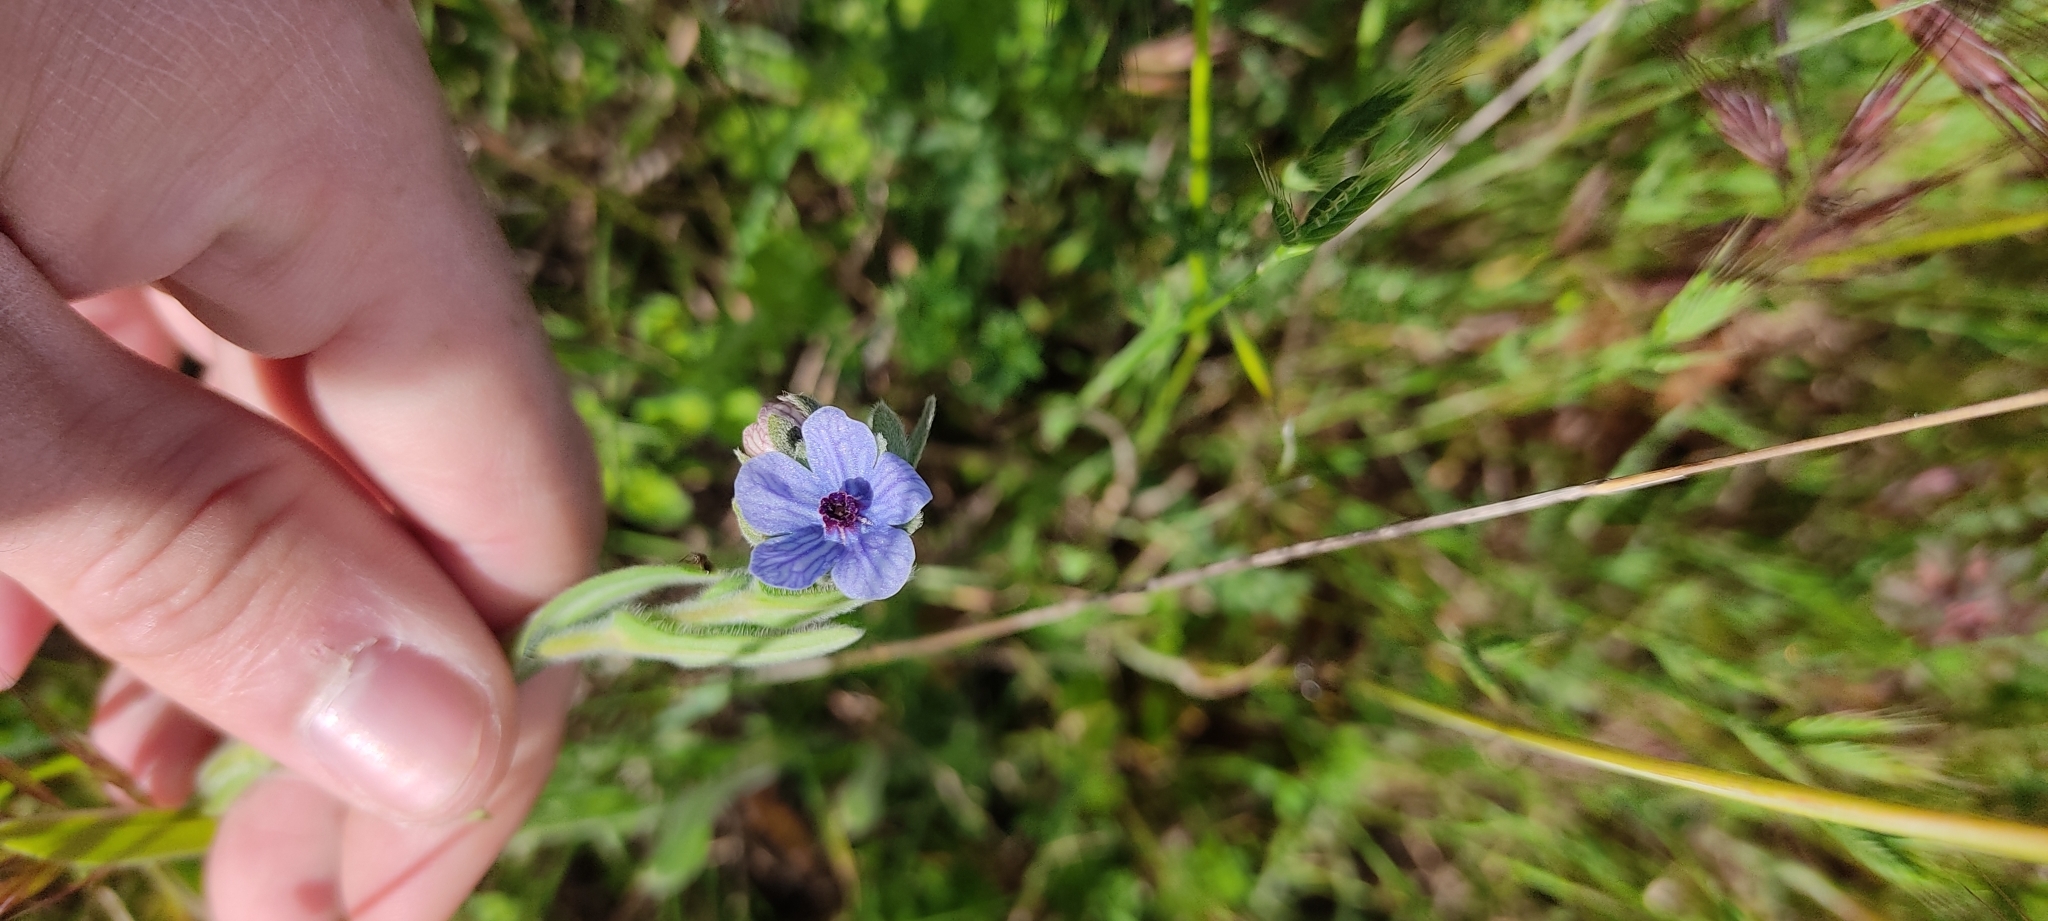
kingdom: Plantae
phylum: Tracheophyta
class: Magnoliopsida
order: Boraginales
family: Boraginaceae
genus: Cynoglossum
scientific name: Cynoglossum creticum
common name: Blue hound's tongue
